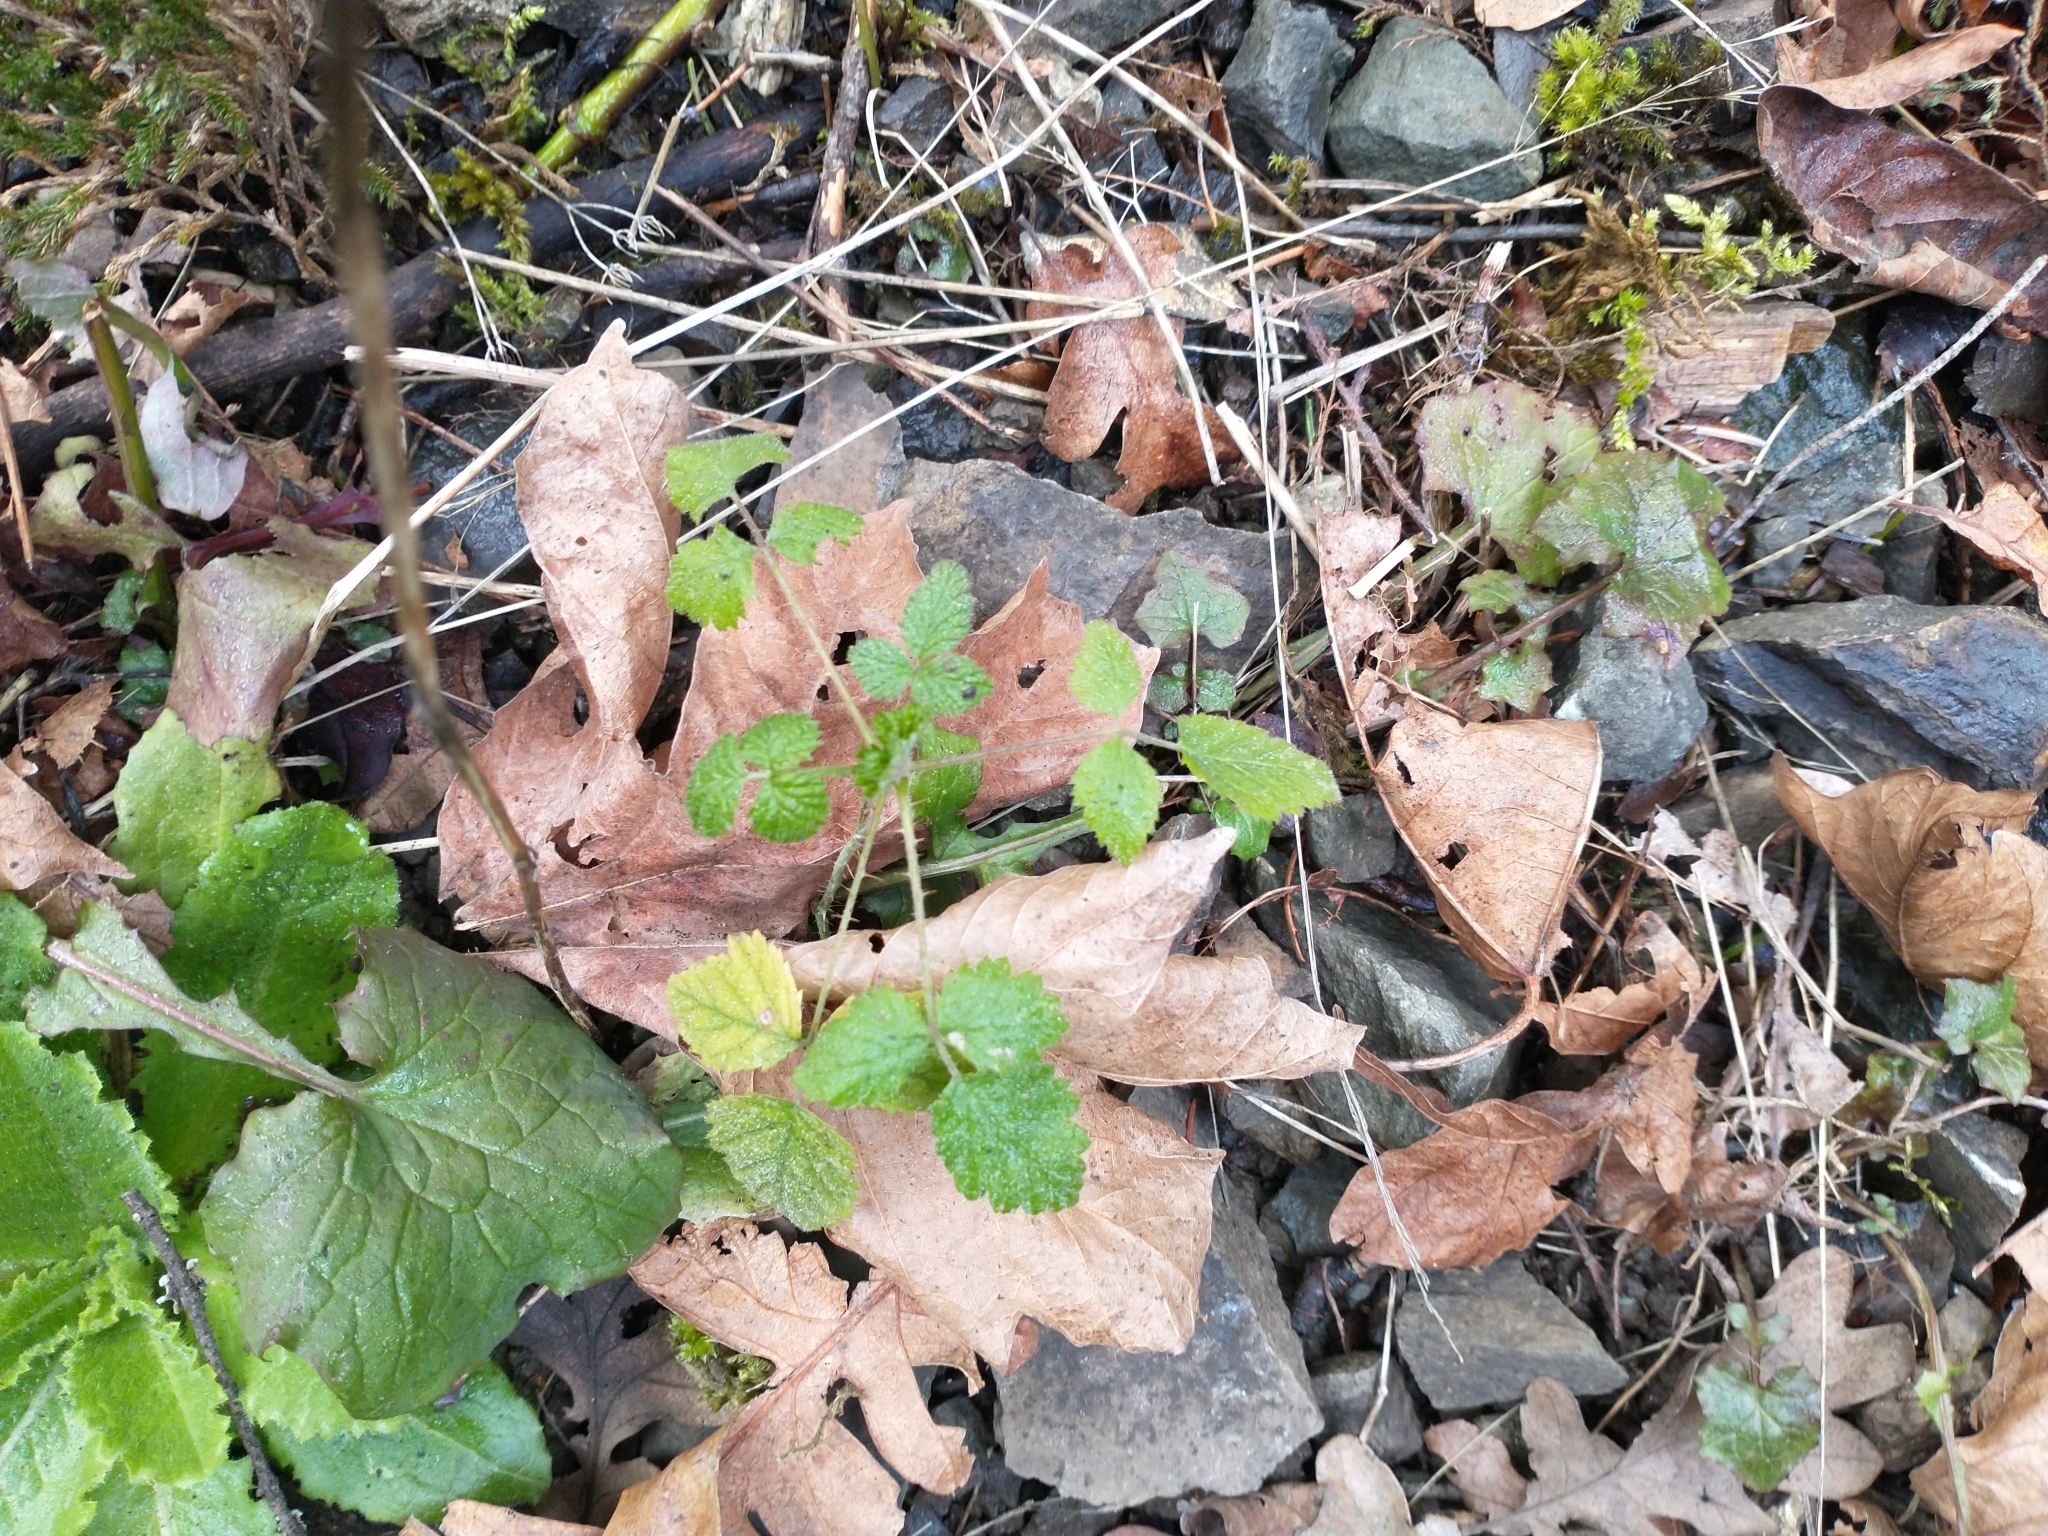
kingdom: Plantae
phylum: Tracheophyta
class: Magnoliopsida
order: Rosales
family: Rosaceae
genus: Rubus
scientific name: Rubus ursinus
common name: Pacific blackberry
